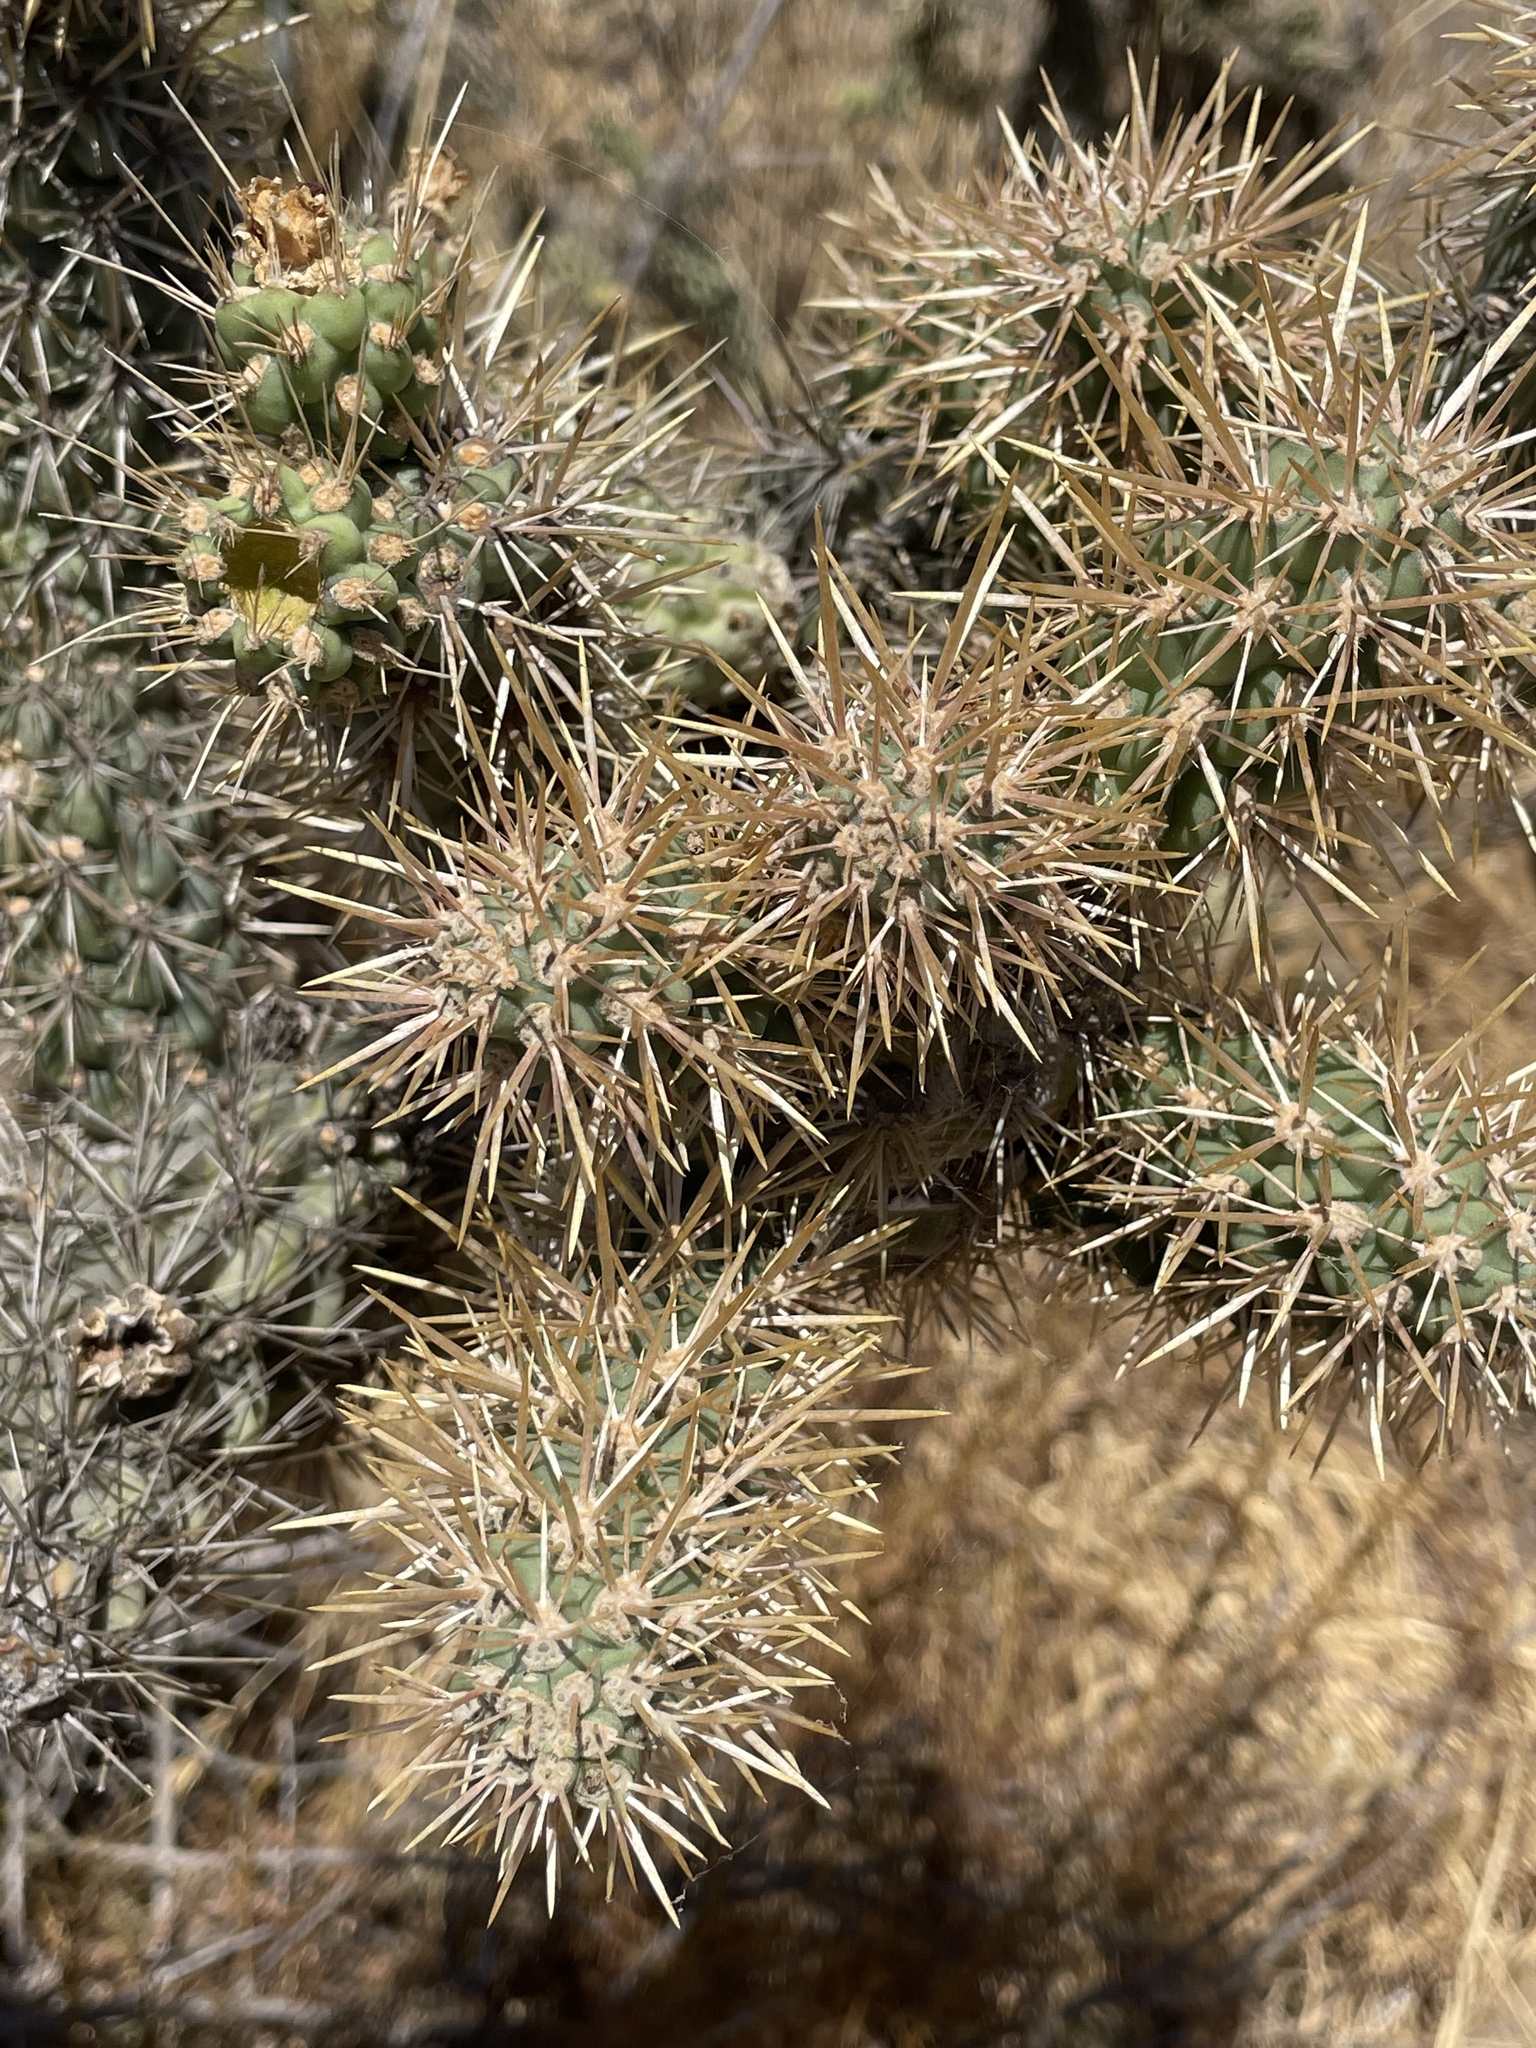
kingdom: Plantae
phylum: Tracheophyta
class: Magnoliopsida
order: Caryophyllales
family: Cactaceae
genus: Cylindropuntia
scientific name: Cylindropuntia prolifera
